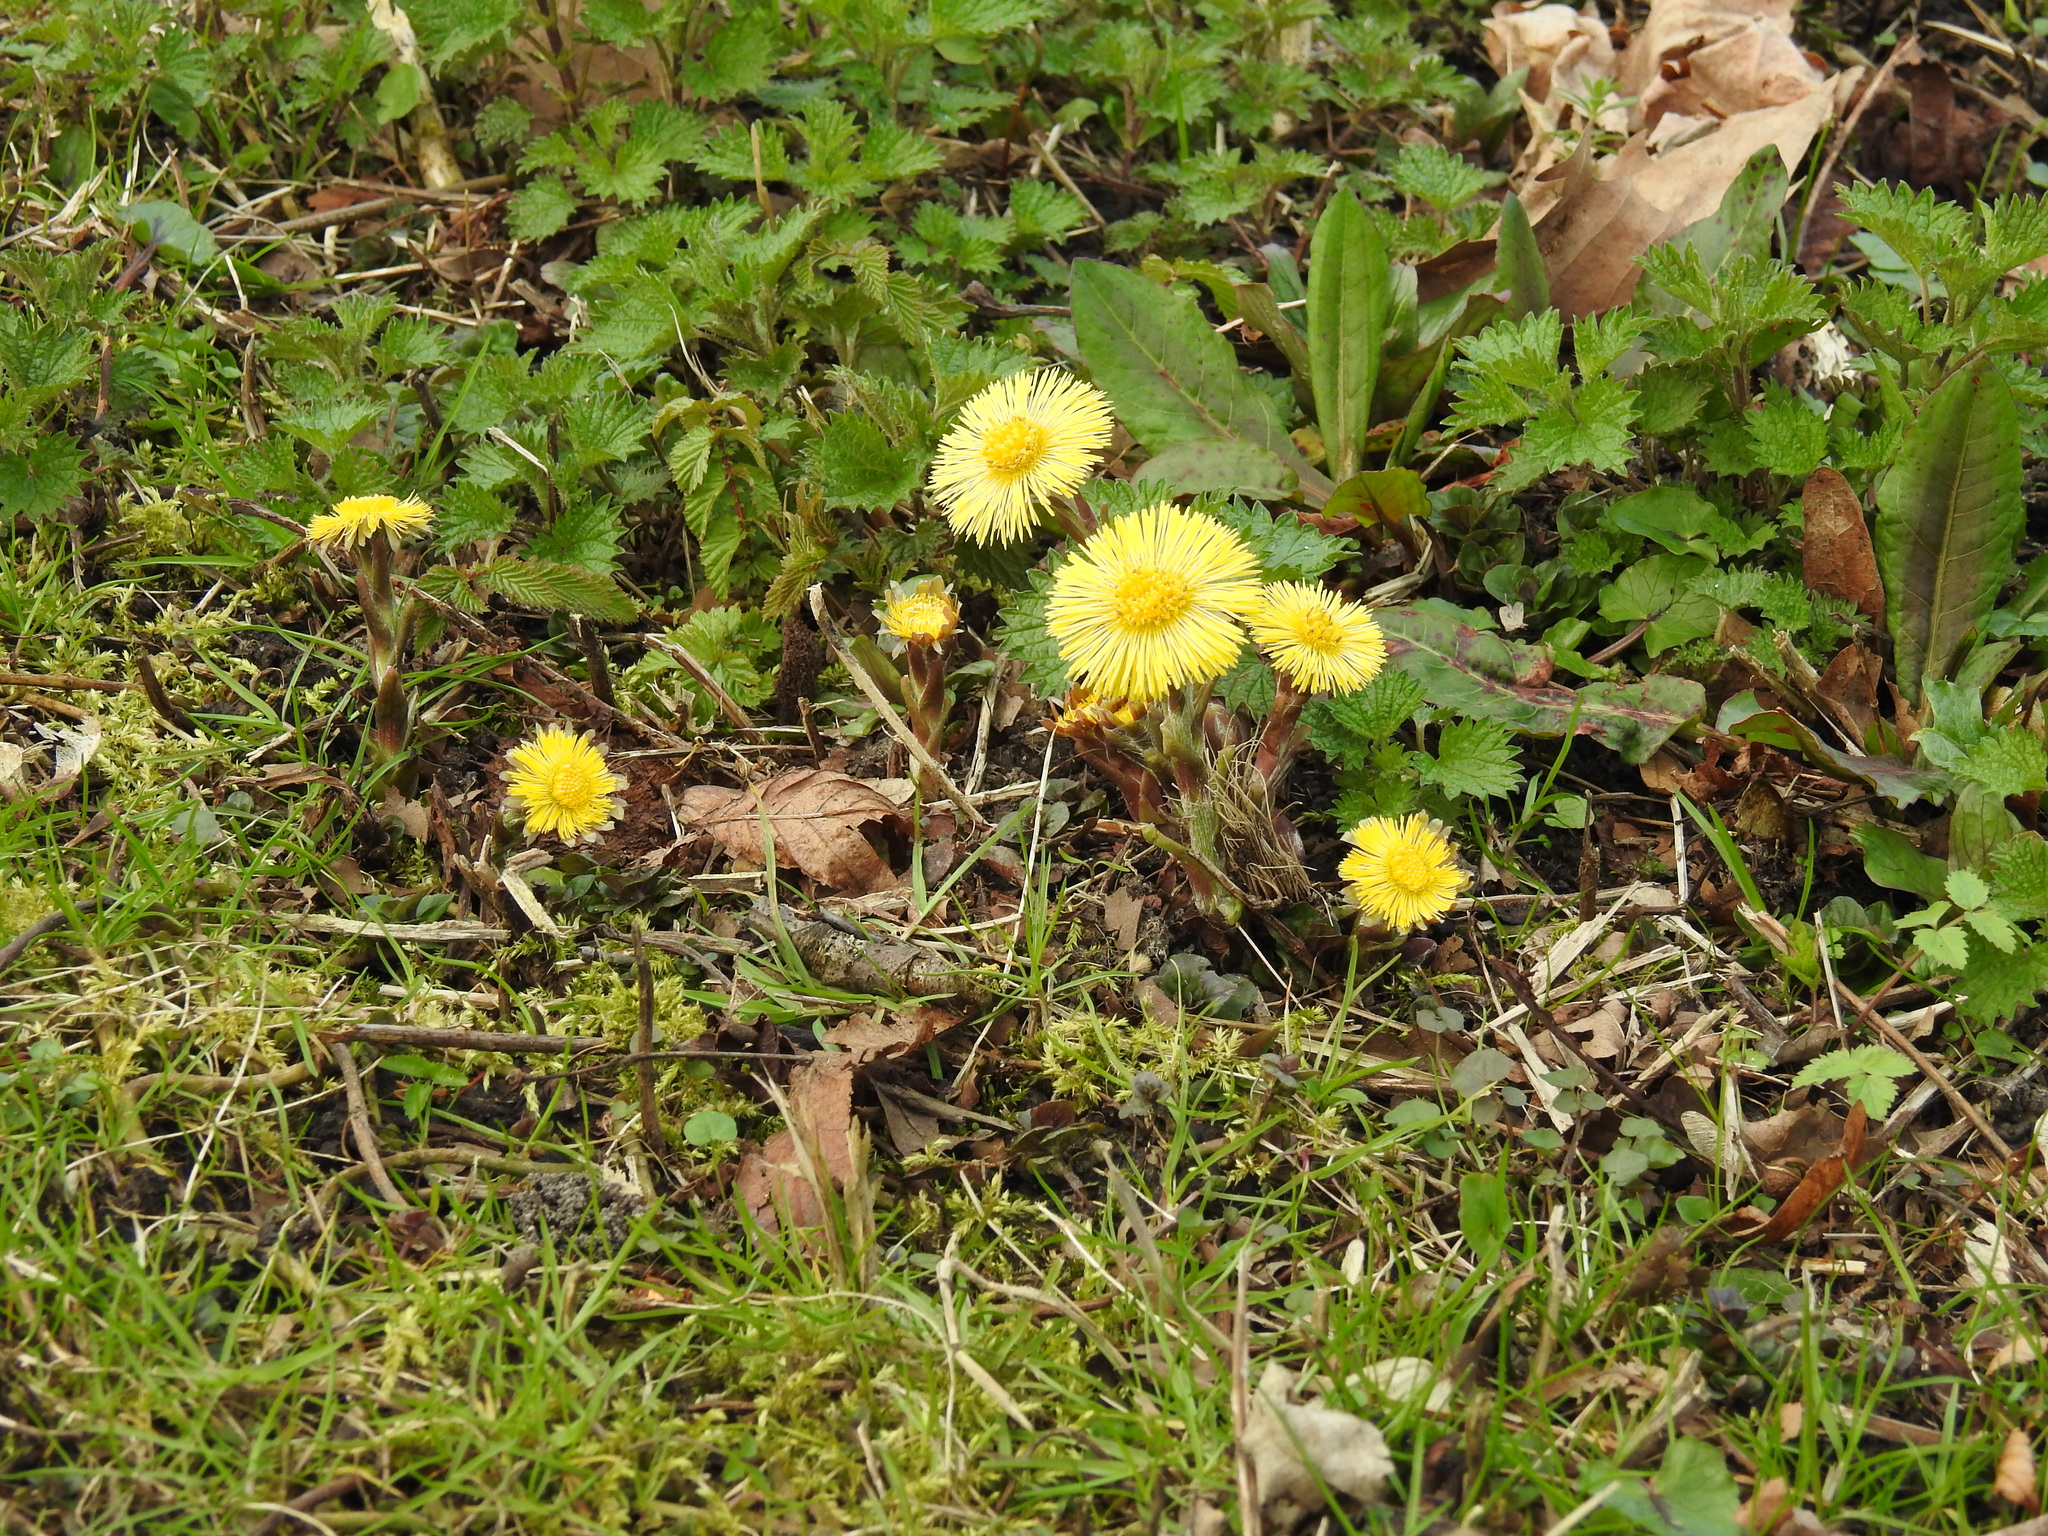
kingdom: Plantae
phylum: Tracheophyta
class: Magnoliopsida
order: Asterales
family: Asteraceae
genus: Tussilago
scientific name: Tussilago farfara
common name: Coltsfoot
